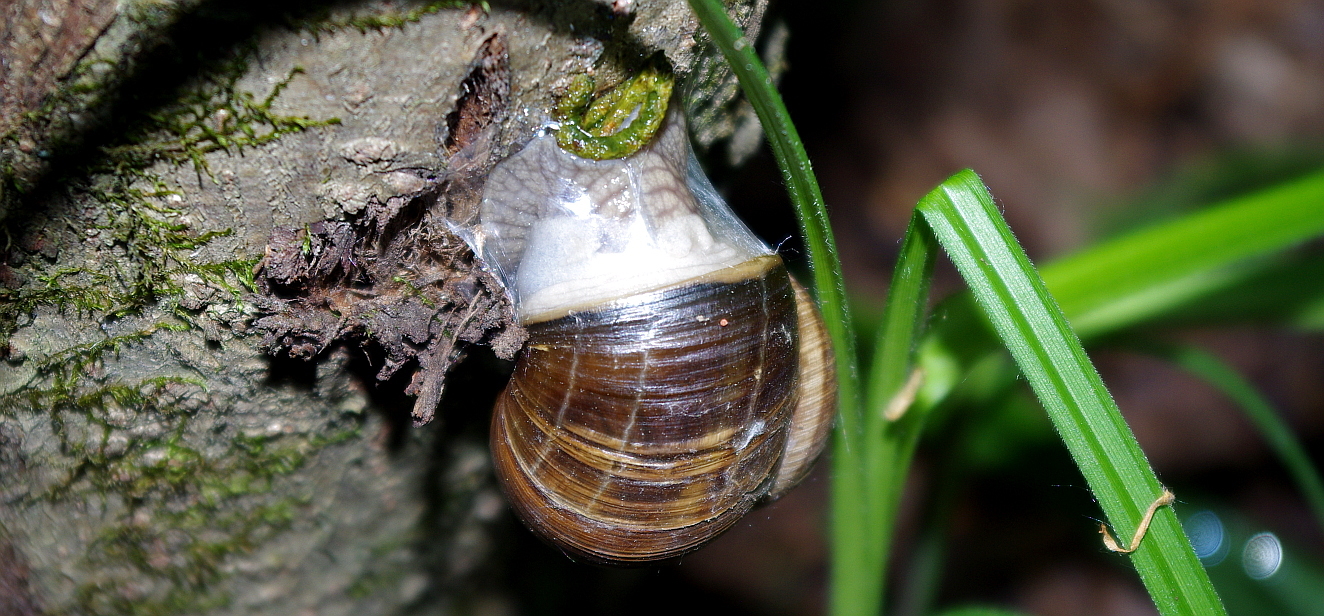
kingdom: Animalia
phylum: Mollusca
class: Gastropoda
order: Stylommatophora
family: Helicidae
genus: Helix
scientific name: Helix pomatia
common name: Roman snail
